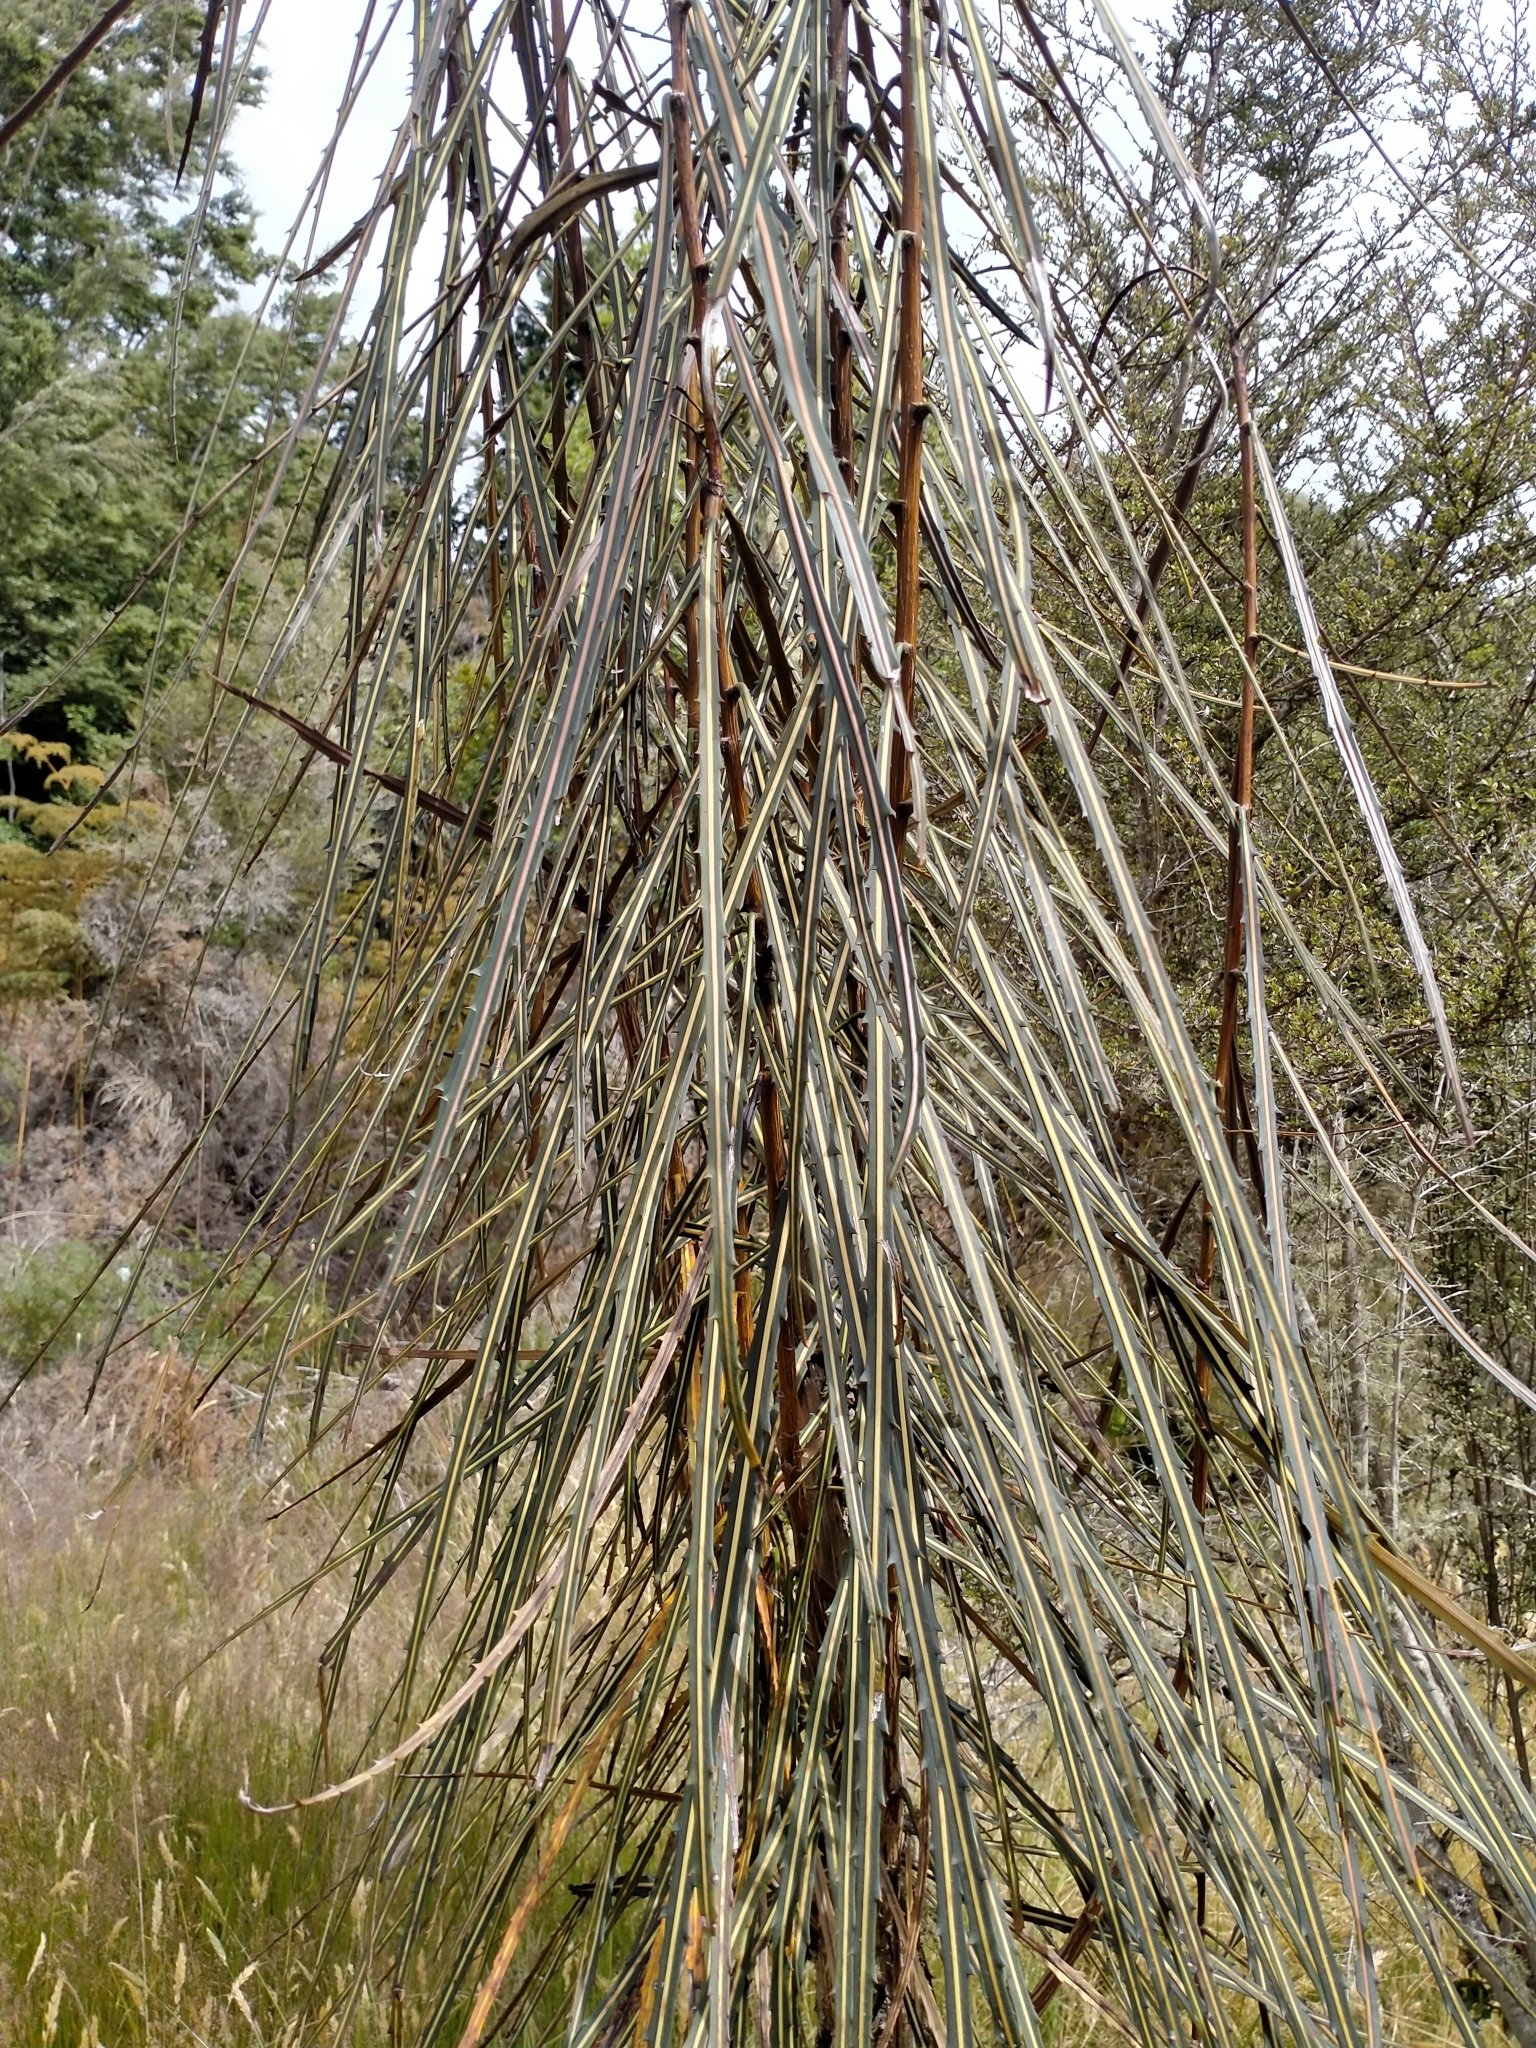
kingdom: Plantae
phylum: Tracheophyta
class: Magnoliopsida
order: Apiales
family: Araliaceae
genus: Pseudopanax
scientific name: Pseudopanax crassifolius
